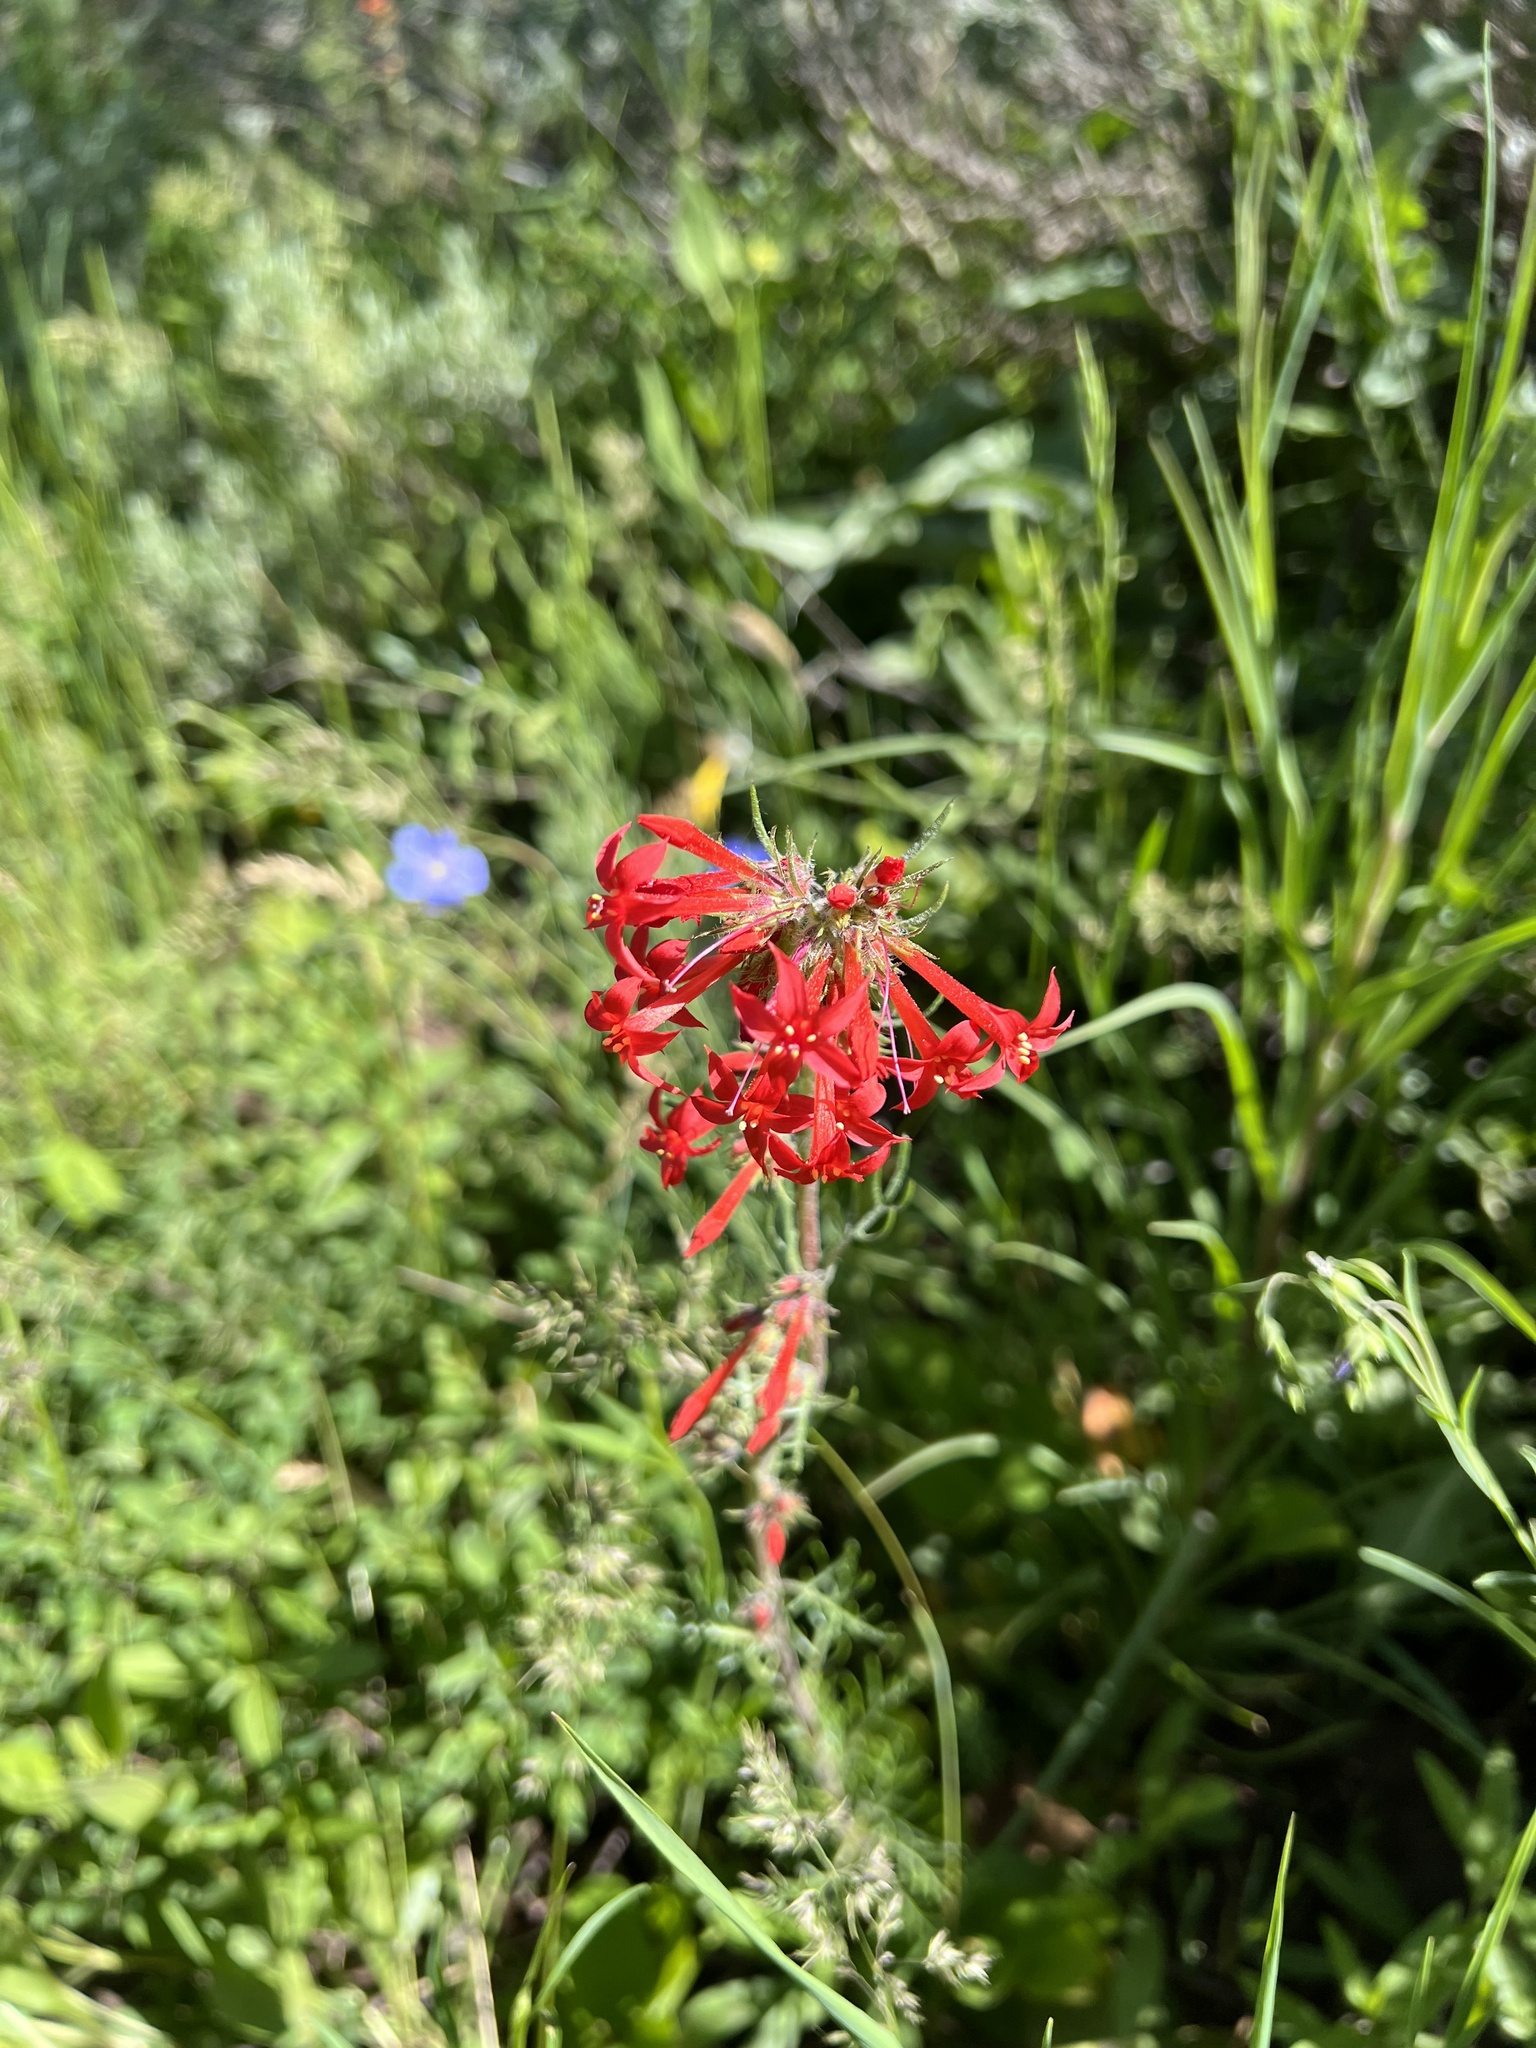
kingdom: Plantae
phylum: Tracheophyta
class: Magnoliopsida
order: Ericales
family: Polemoniaceae
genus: Ipomopsis
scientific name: Ipomopsis aggregata
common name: Scarlet gilia
